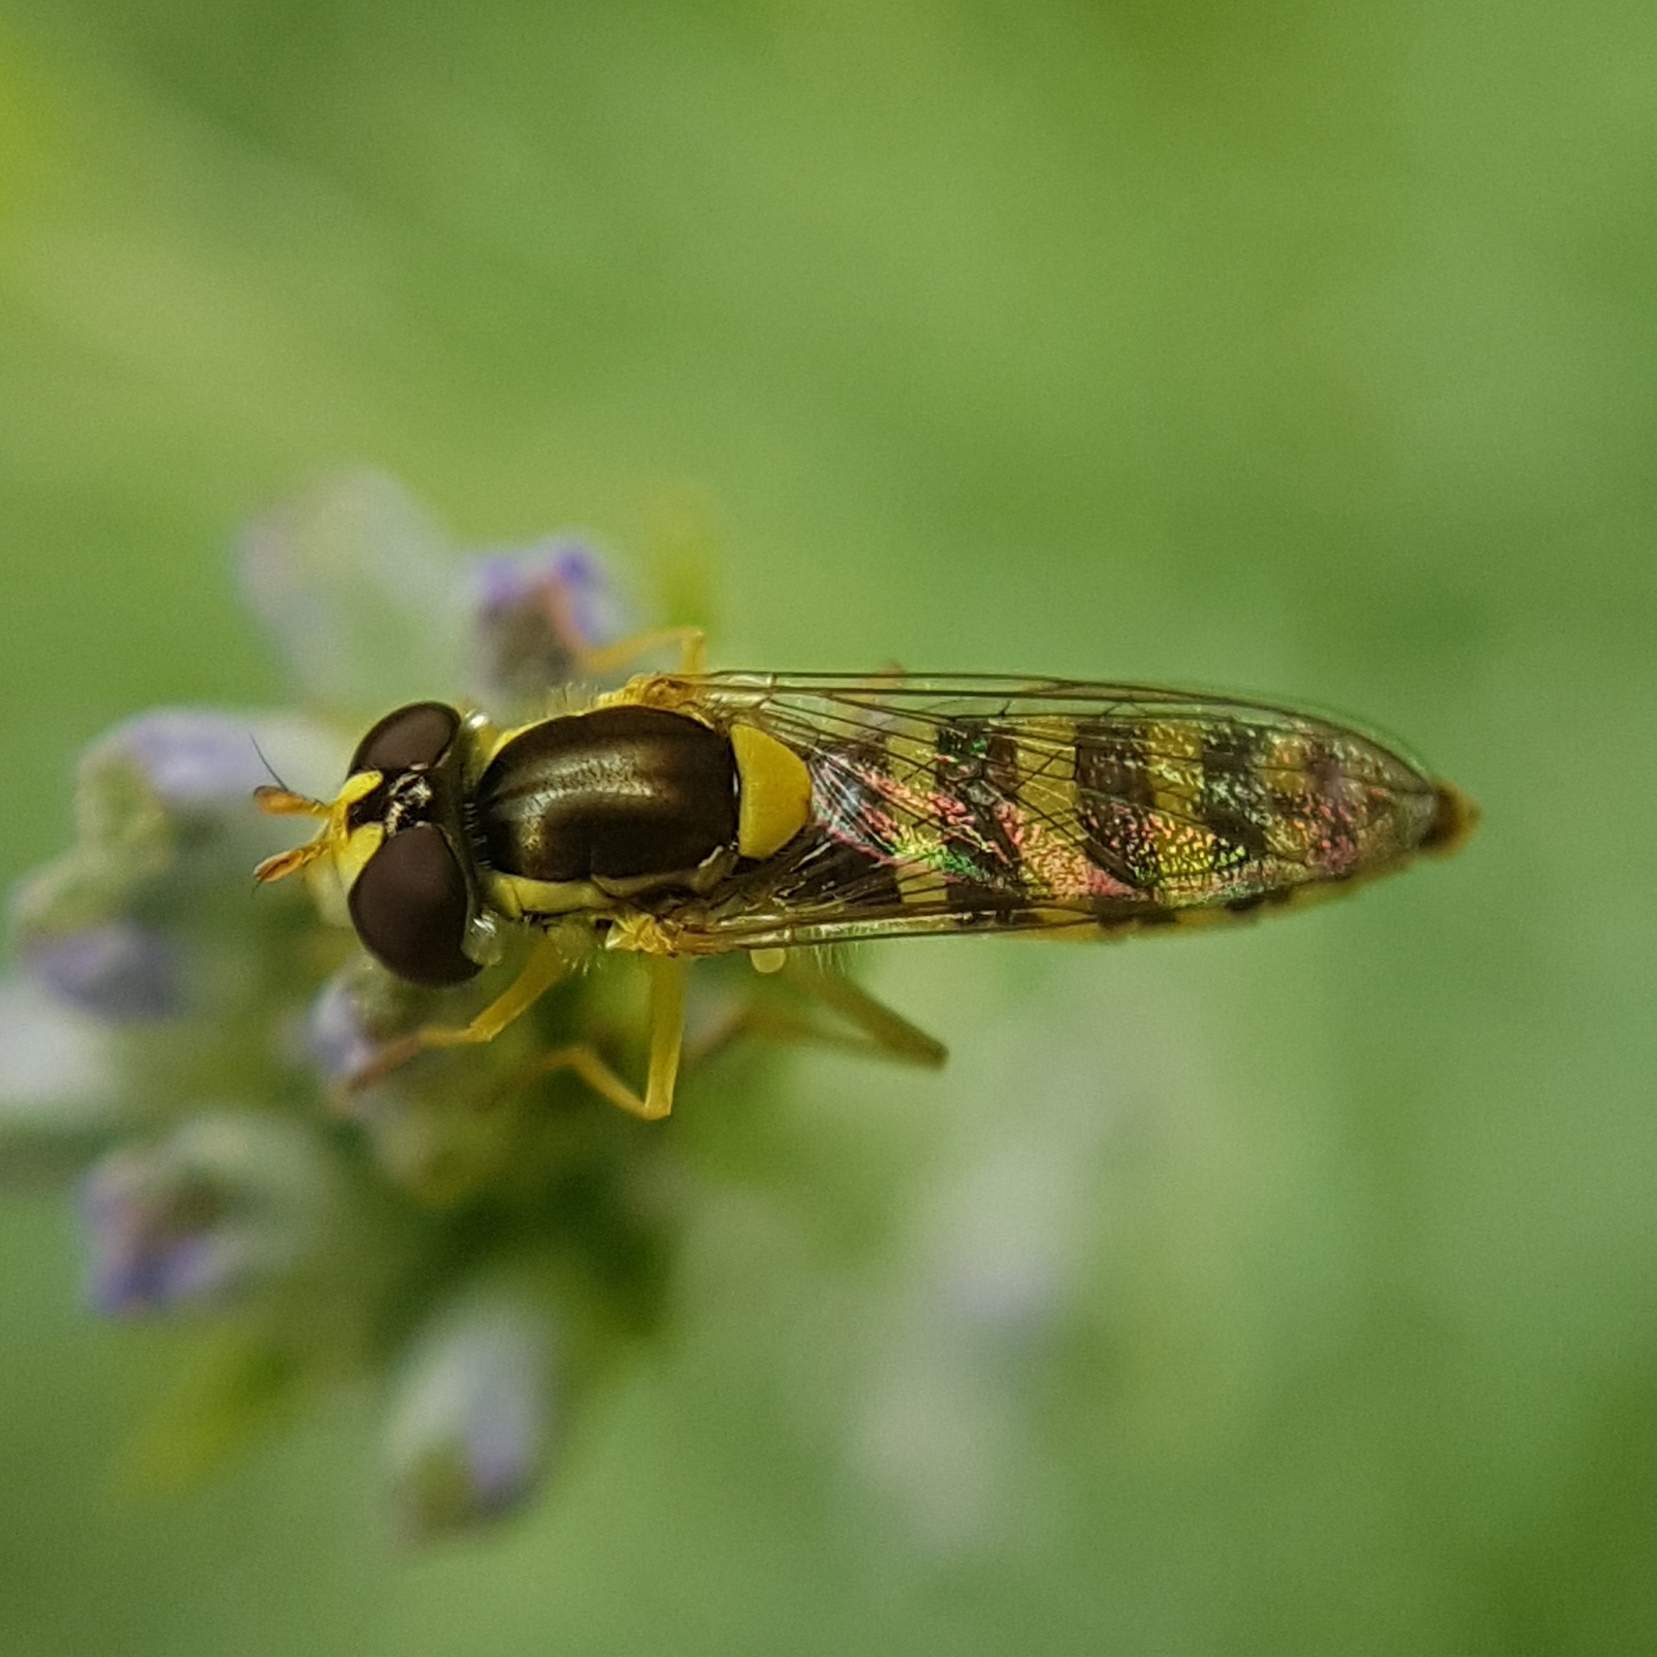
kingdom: Animalia
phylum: Arthropoda
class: Insecta
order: Diptera
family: Syrphidae
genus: Sphaerophoria
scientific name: Sphaerophoria
